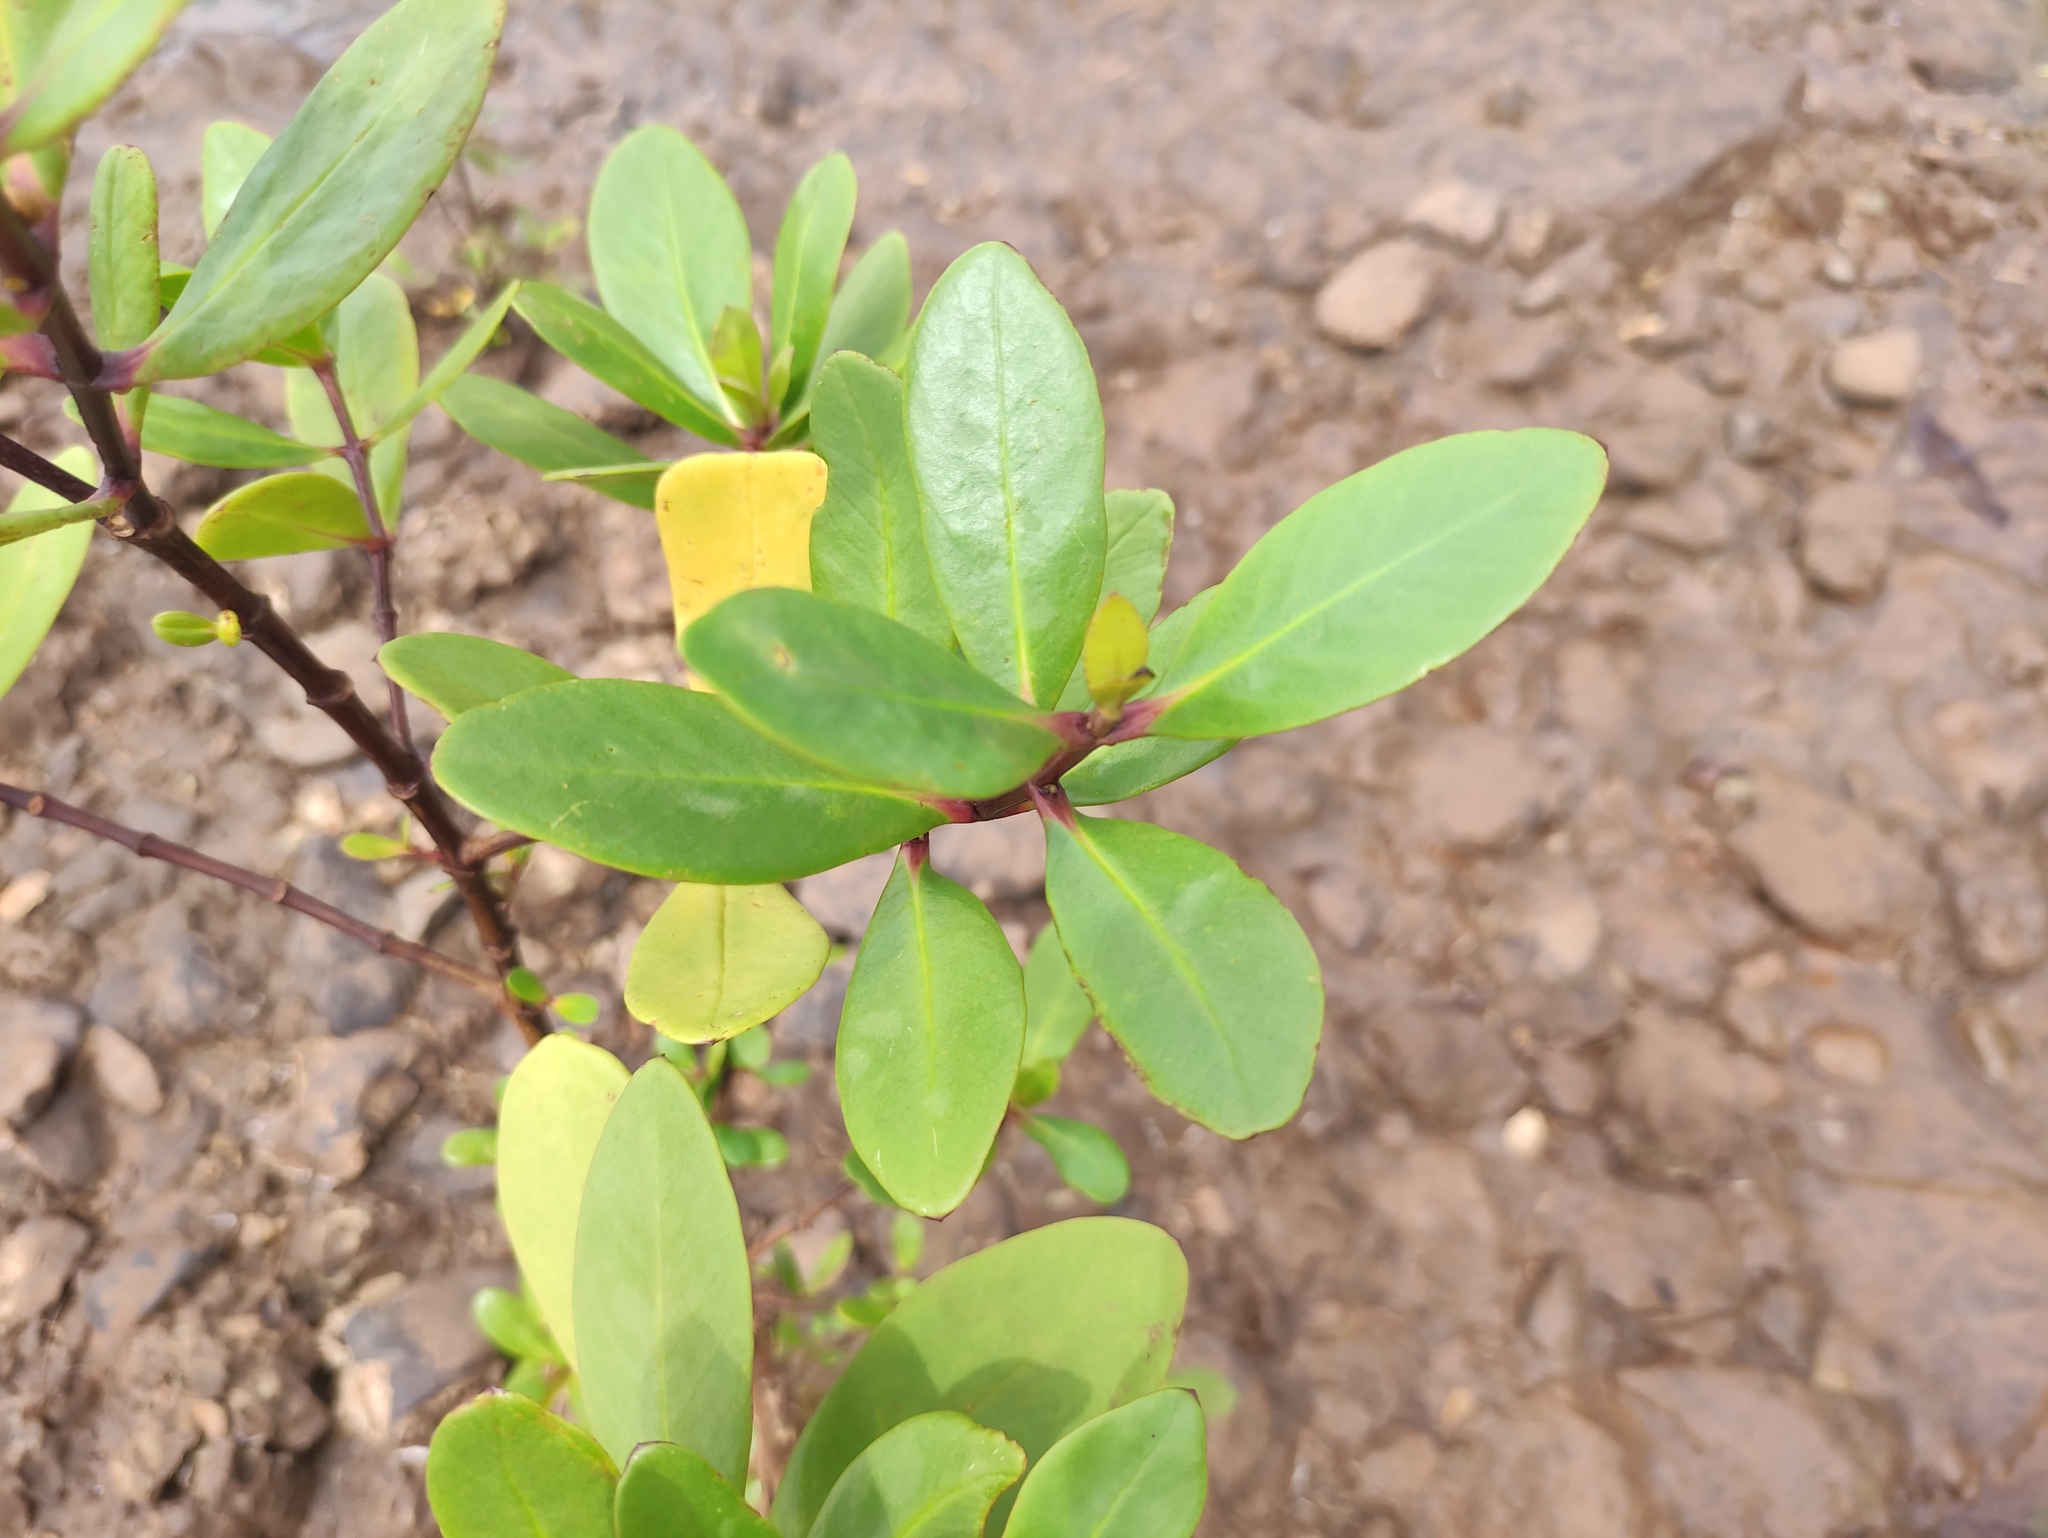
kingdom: Plantae
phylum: Tracheophyta
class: Magnoliopsida
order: Myrtales
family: Lythraceae
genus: Sonneratia
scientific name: Sonneratia alba
